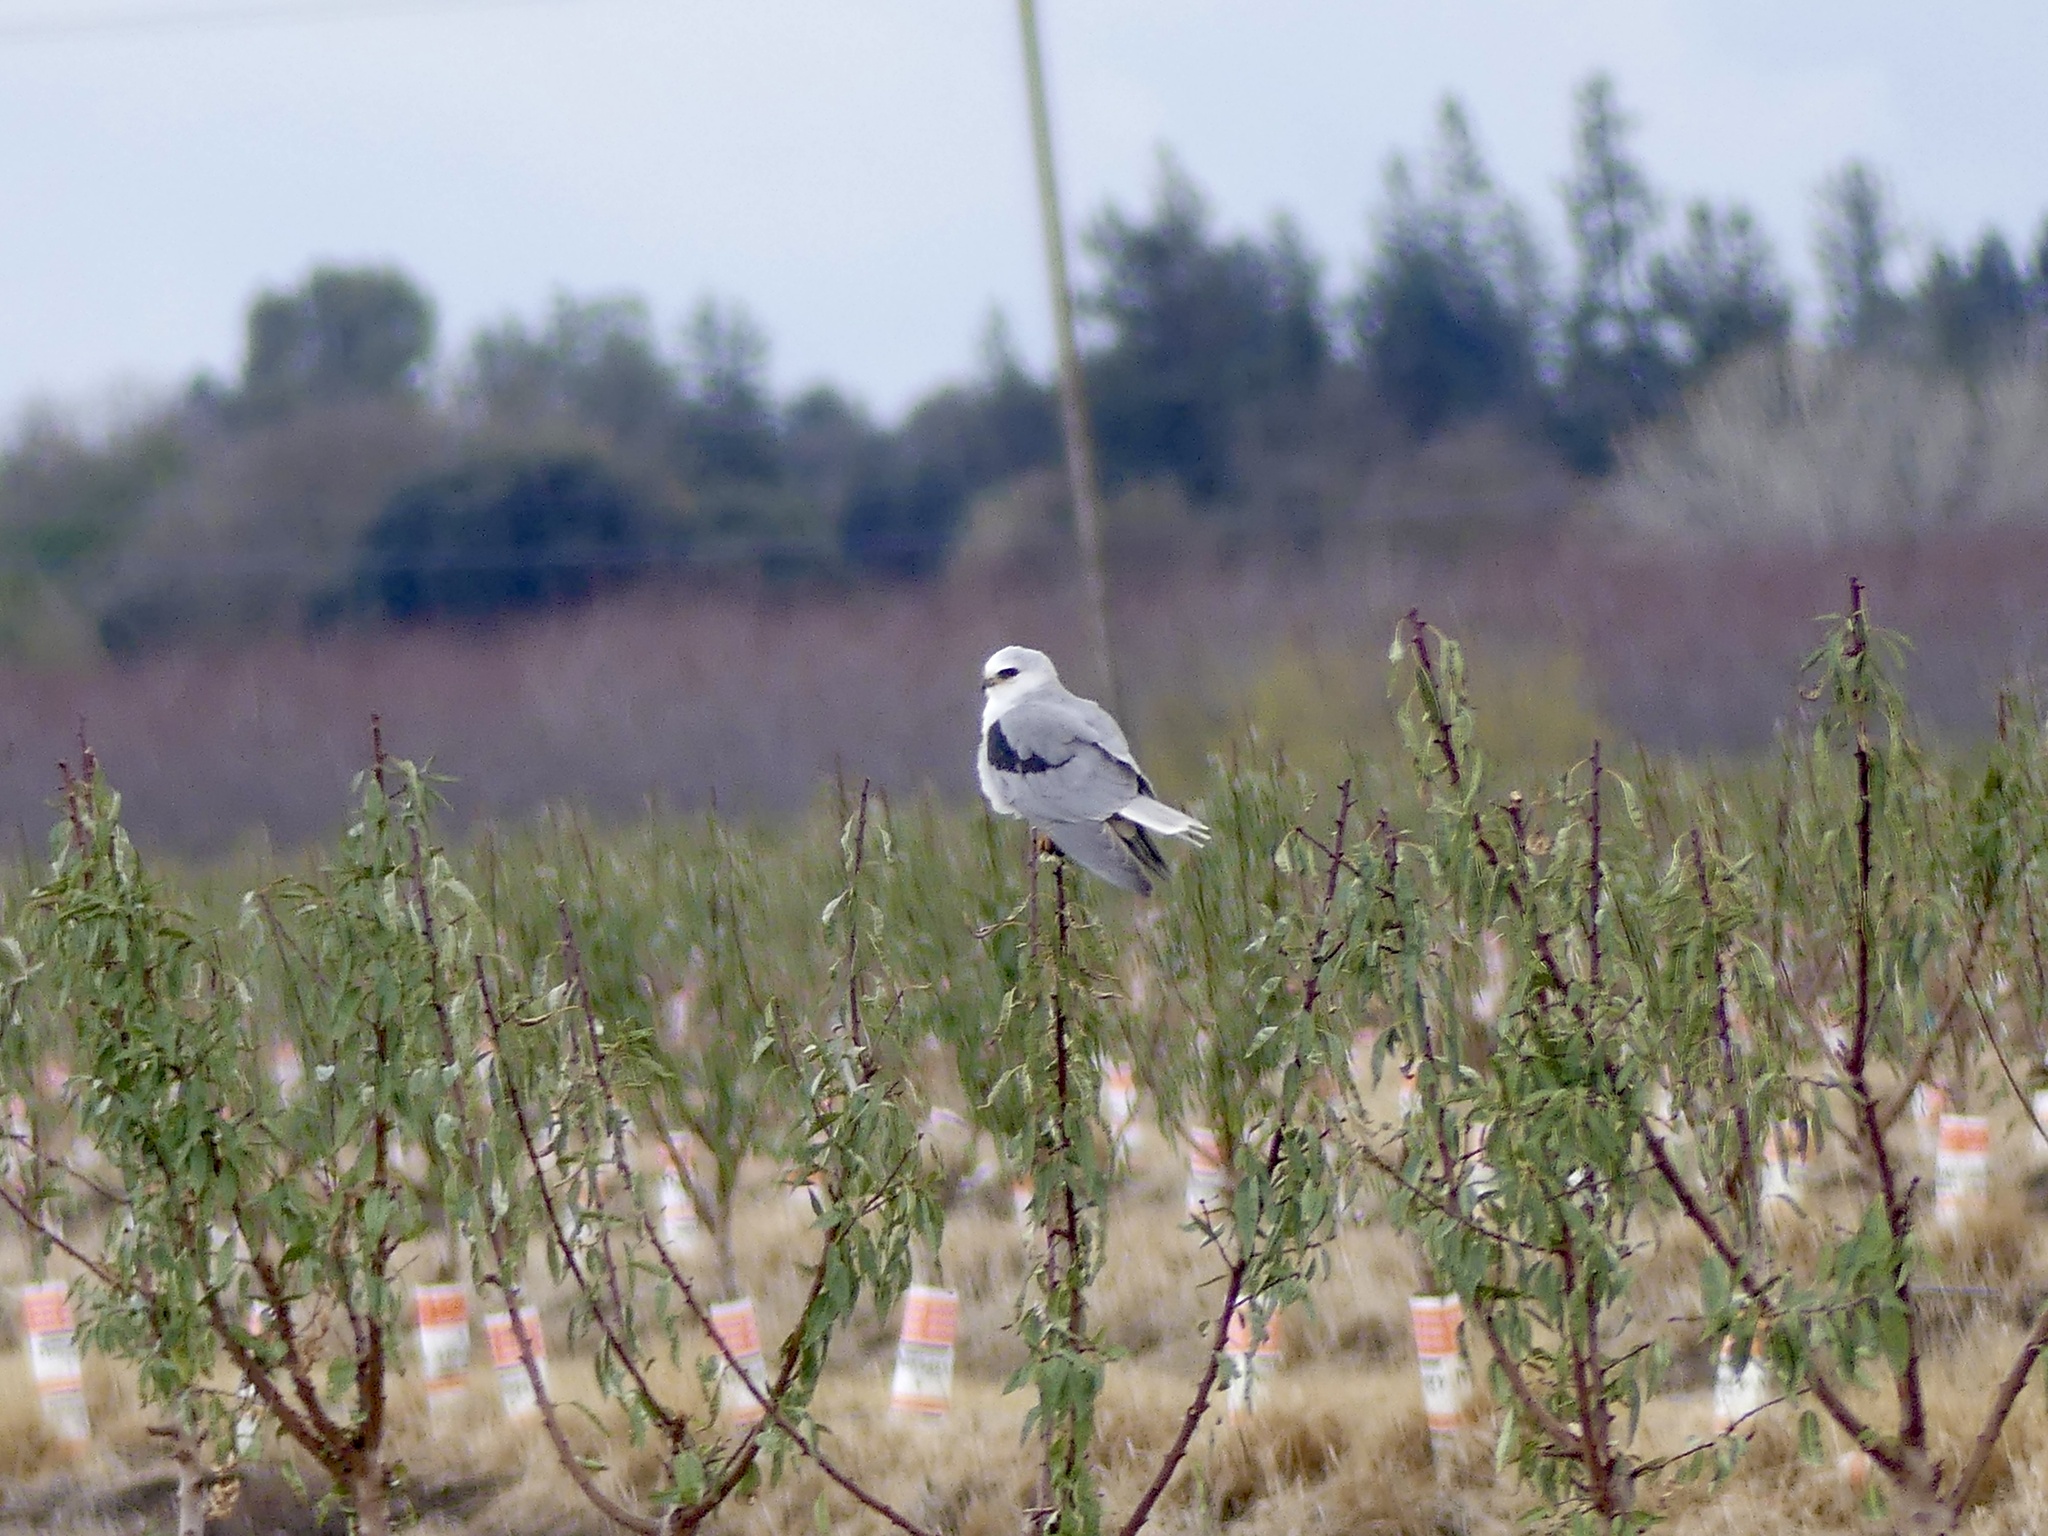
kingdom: Animalia
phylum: Chordata
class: Aves
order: Accipitriformes
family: Accipitridae
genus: Elanus
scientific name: Elanus leucurus
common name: White-tailed kite
